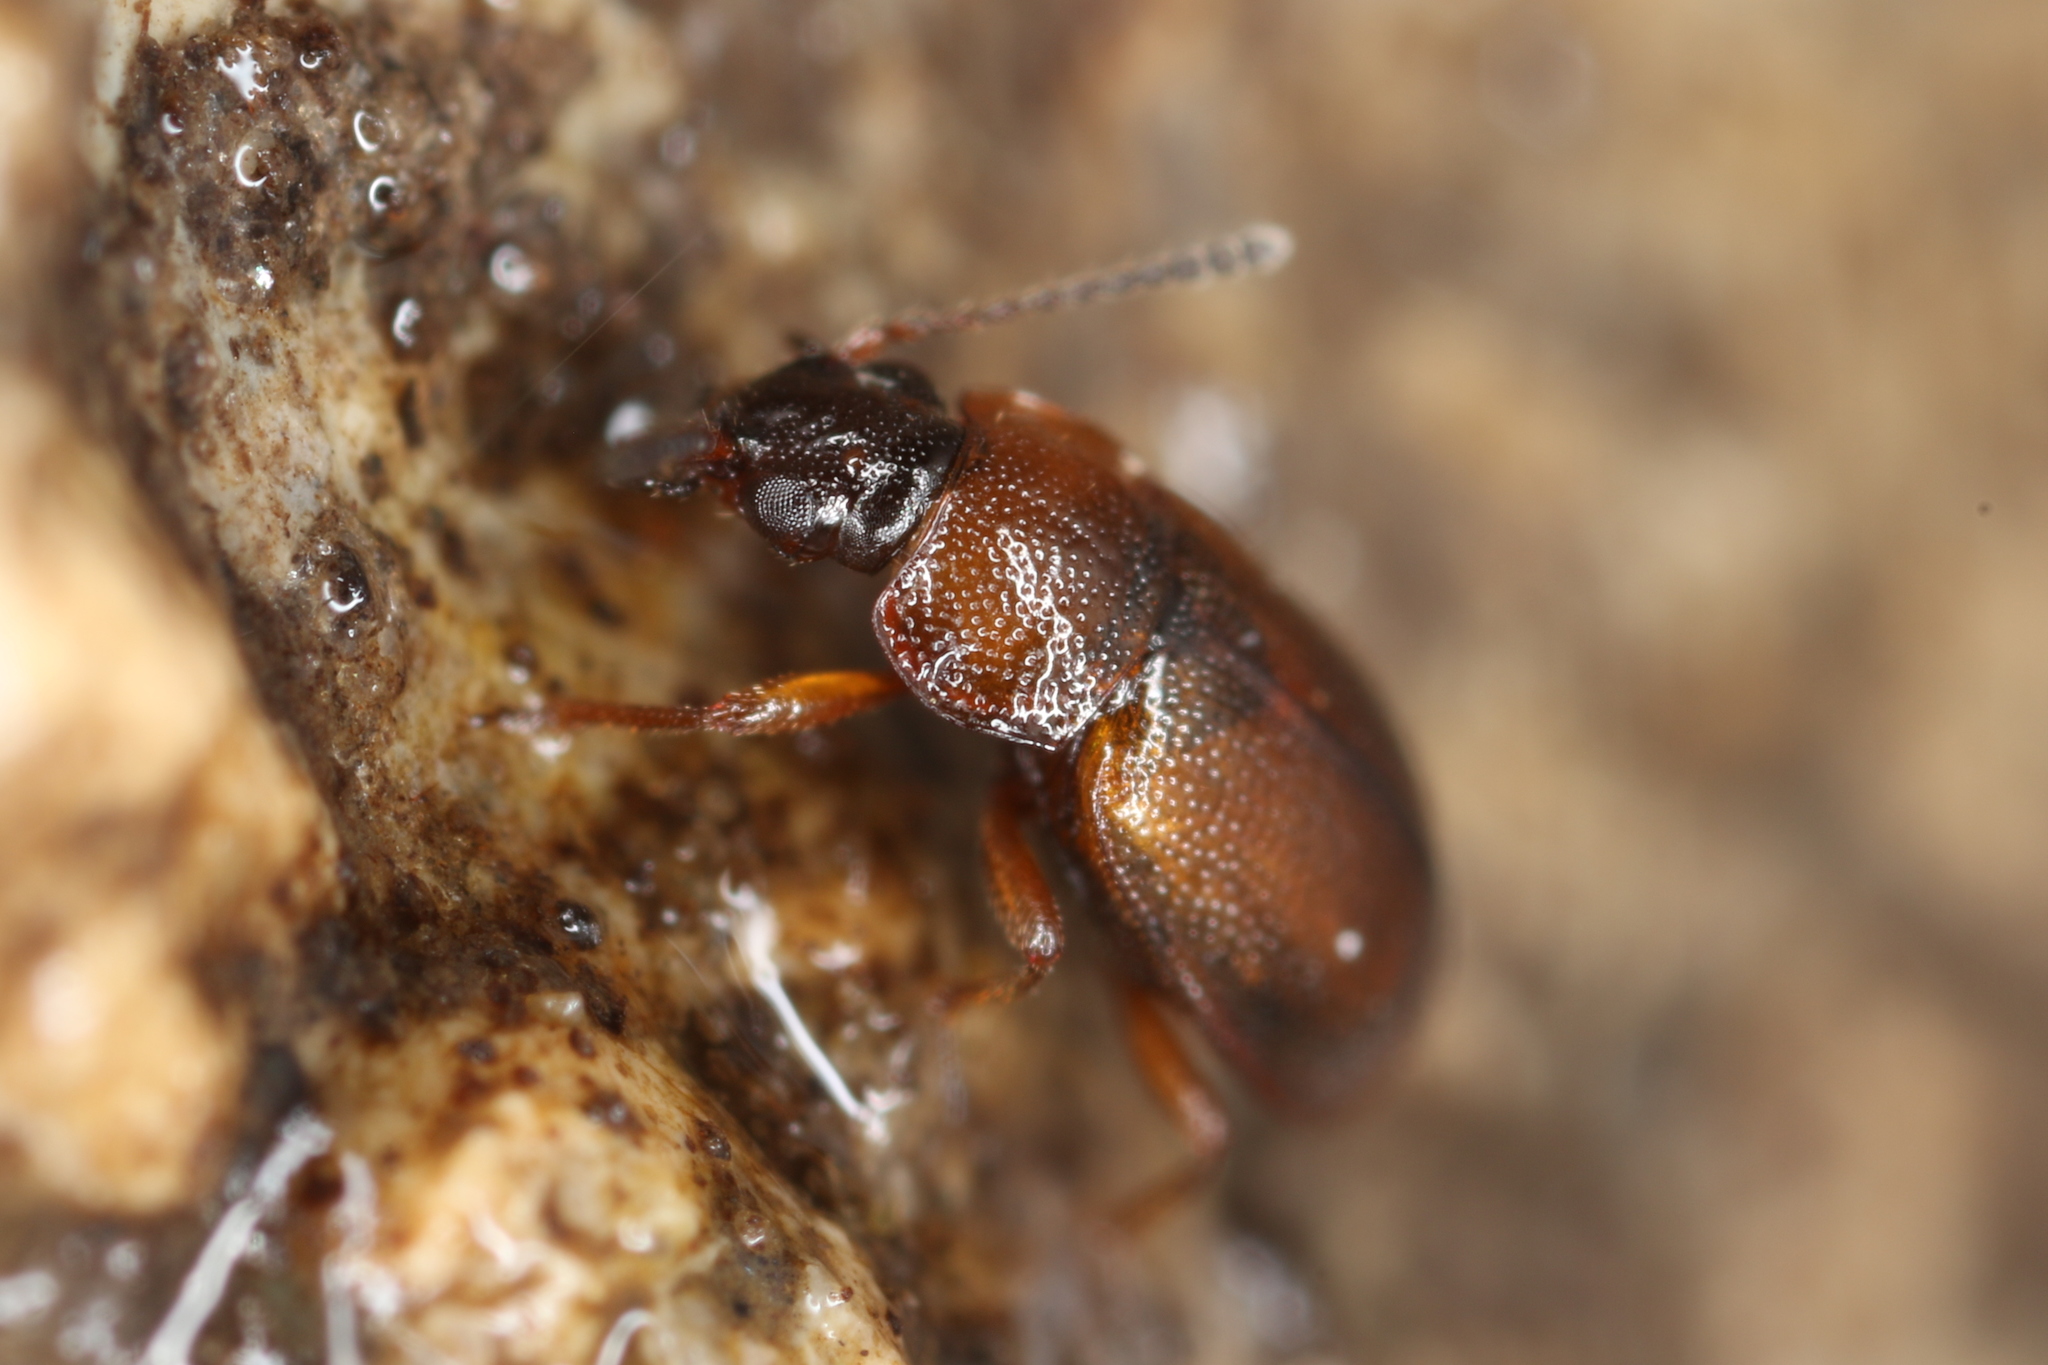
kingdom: Animalia
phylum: Arthropoda
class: Insecta
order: Coleoptera
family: Staphylinidae
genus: Anthobium
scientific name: Anthobium atrocephalum
